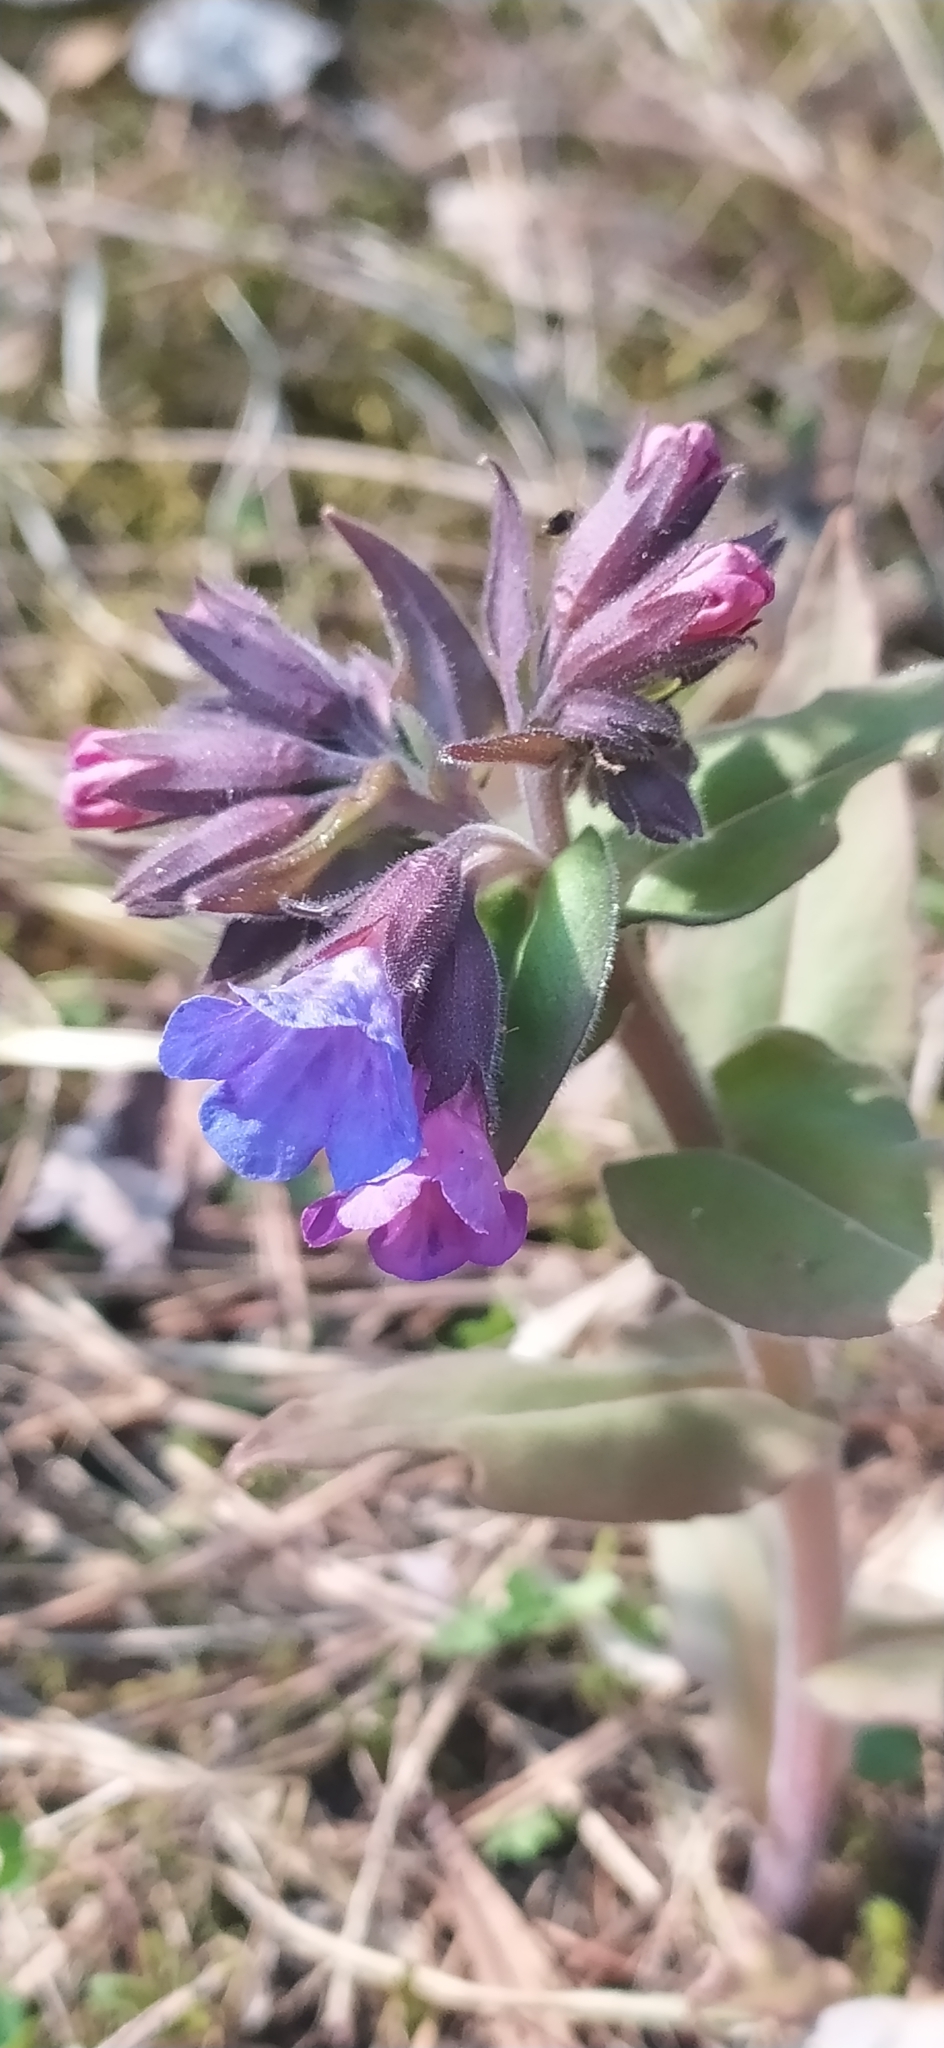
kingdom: Plantae
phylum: Tracheophyta
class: Magnoliopsida
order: Boraginales
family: Boraginaceae
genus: Pulmonaria
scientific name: Pulmonaria mollis
